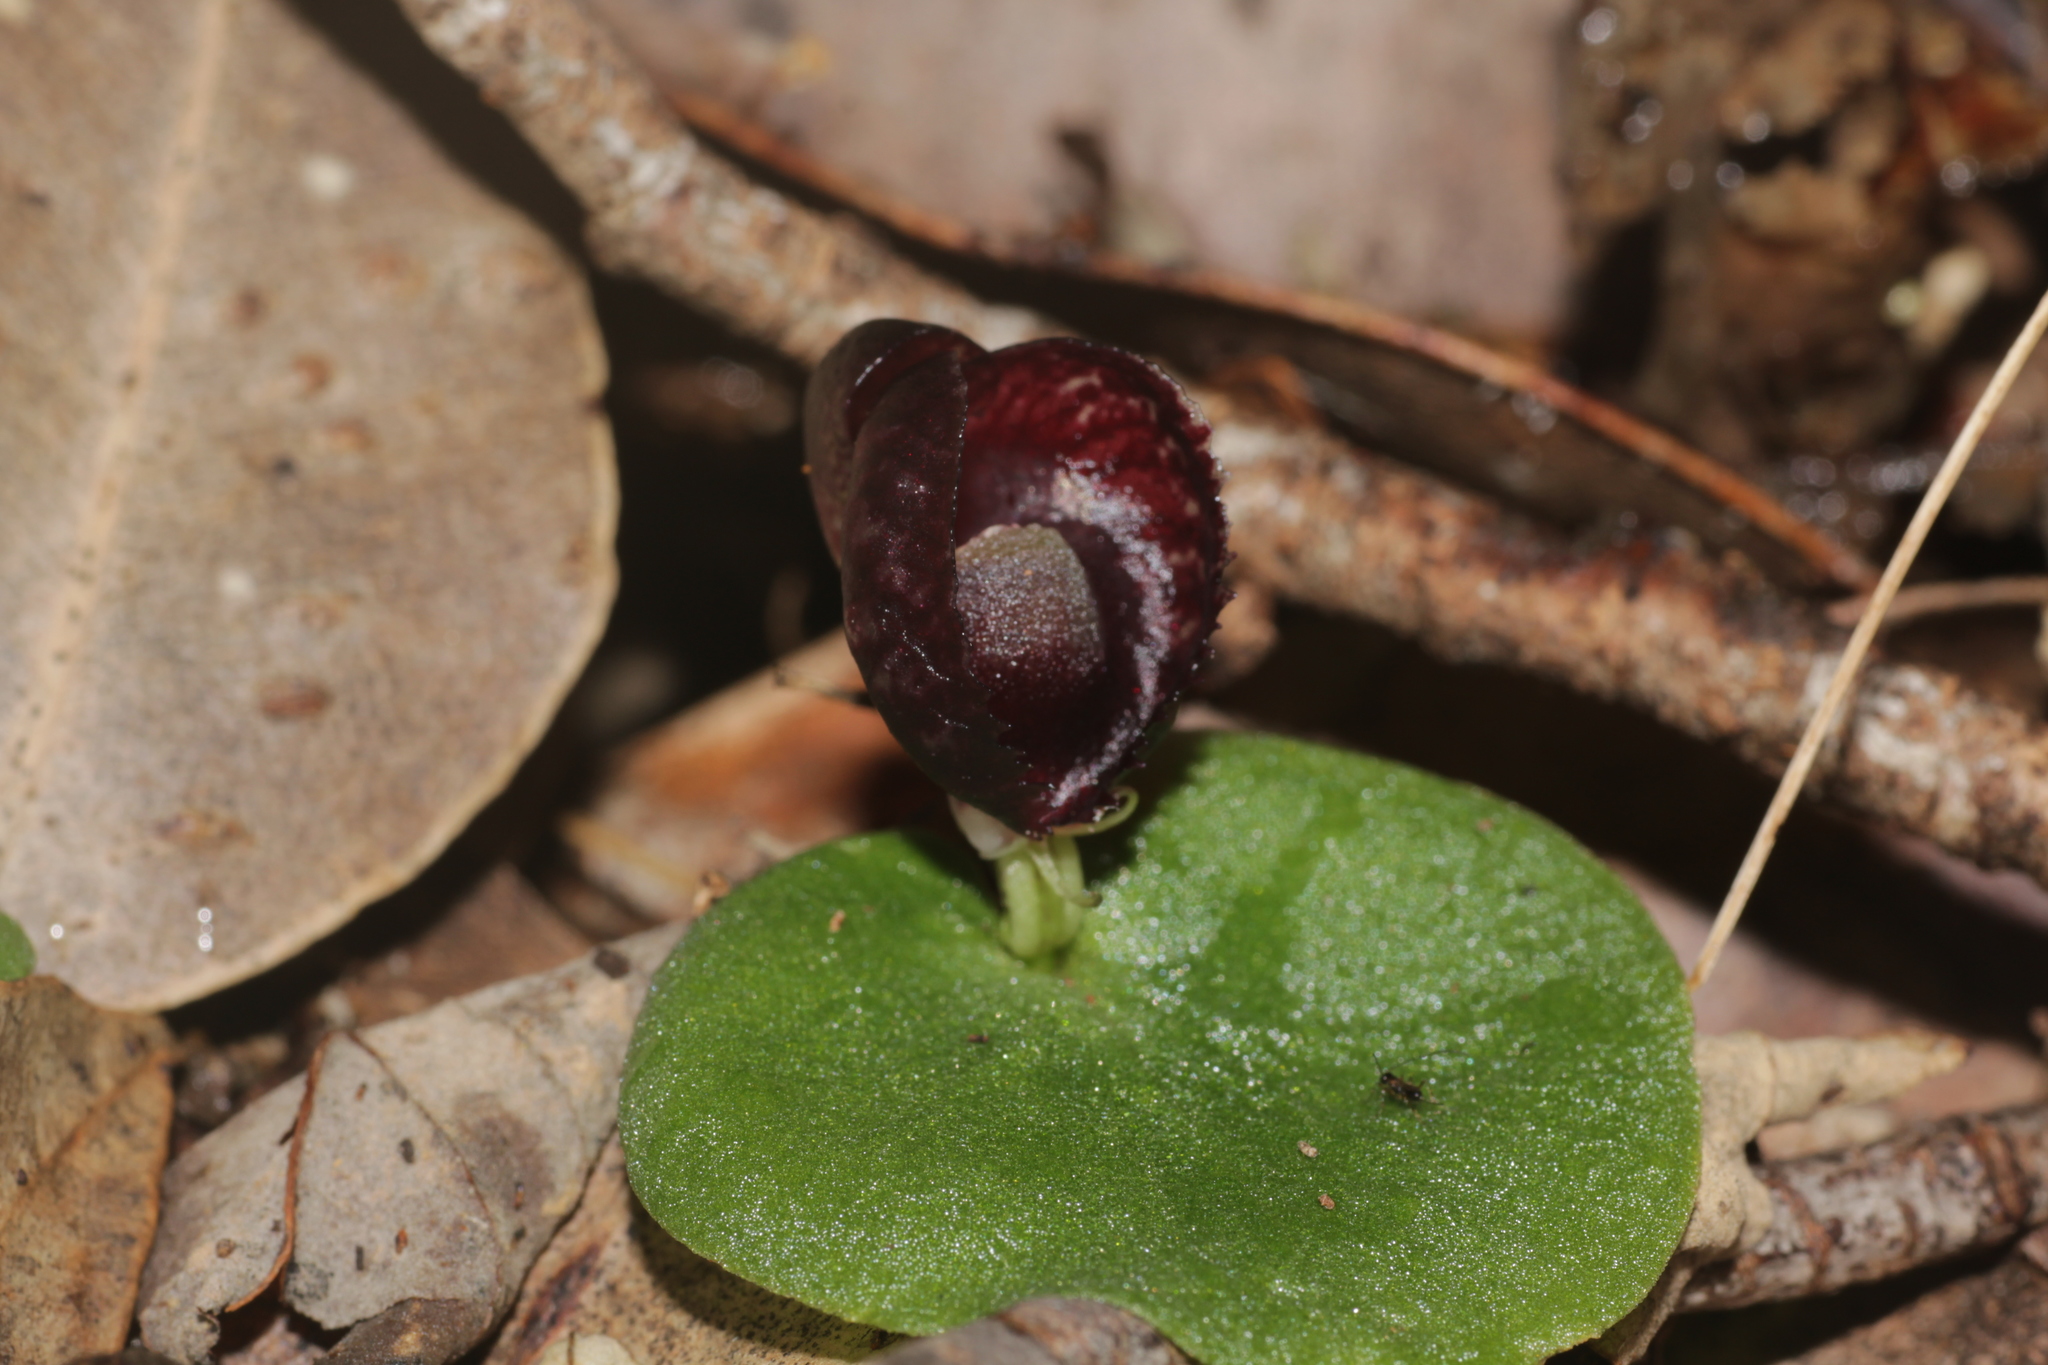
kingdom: Plantae
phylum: Tracheophyta
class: Liliopsida
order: Asparagales
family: Orchidaceae
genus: Corybas
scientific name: Corybas recurvus
